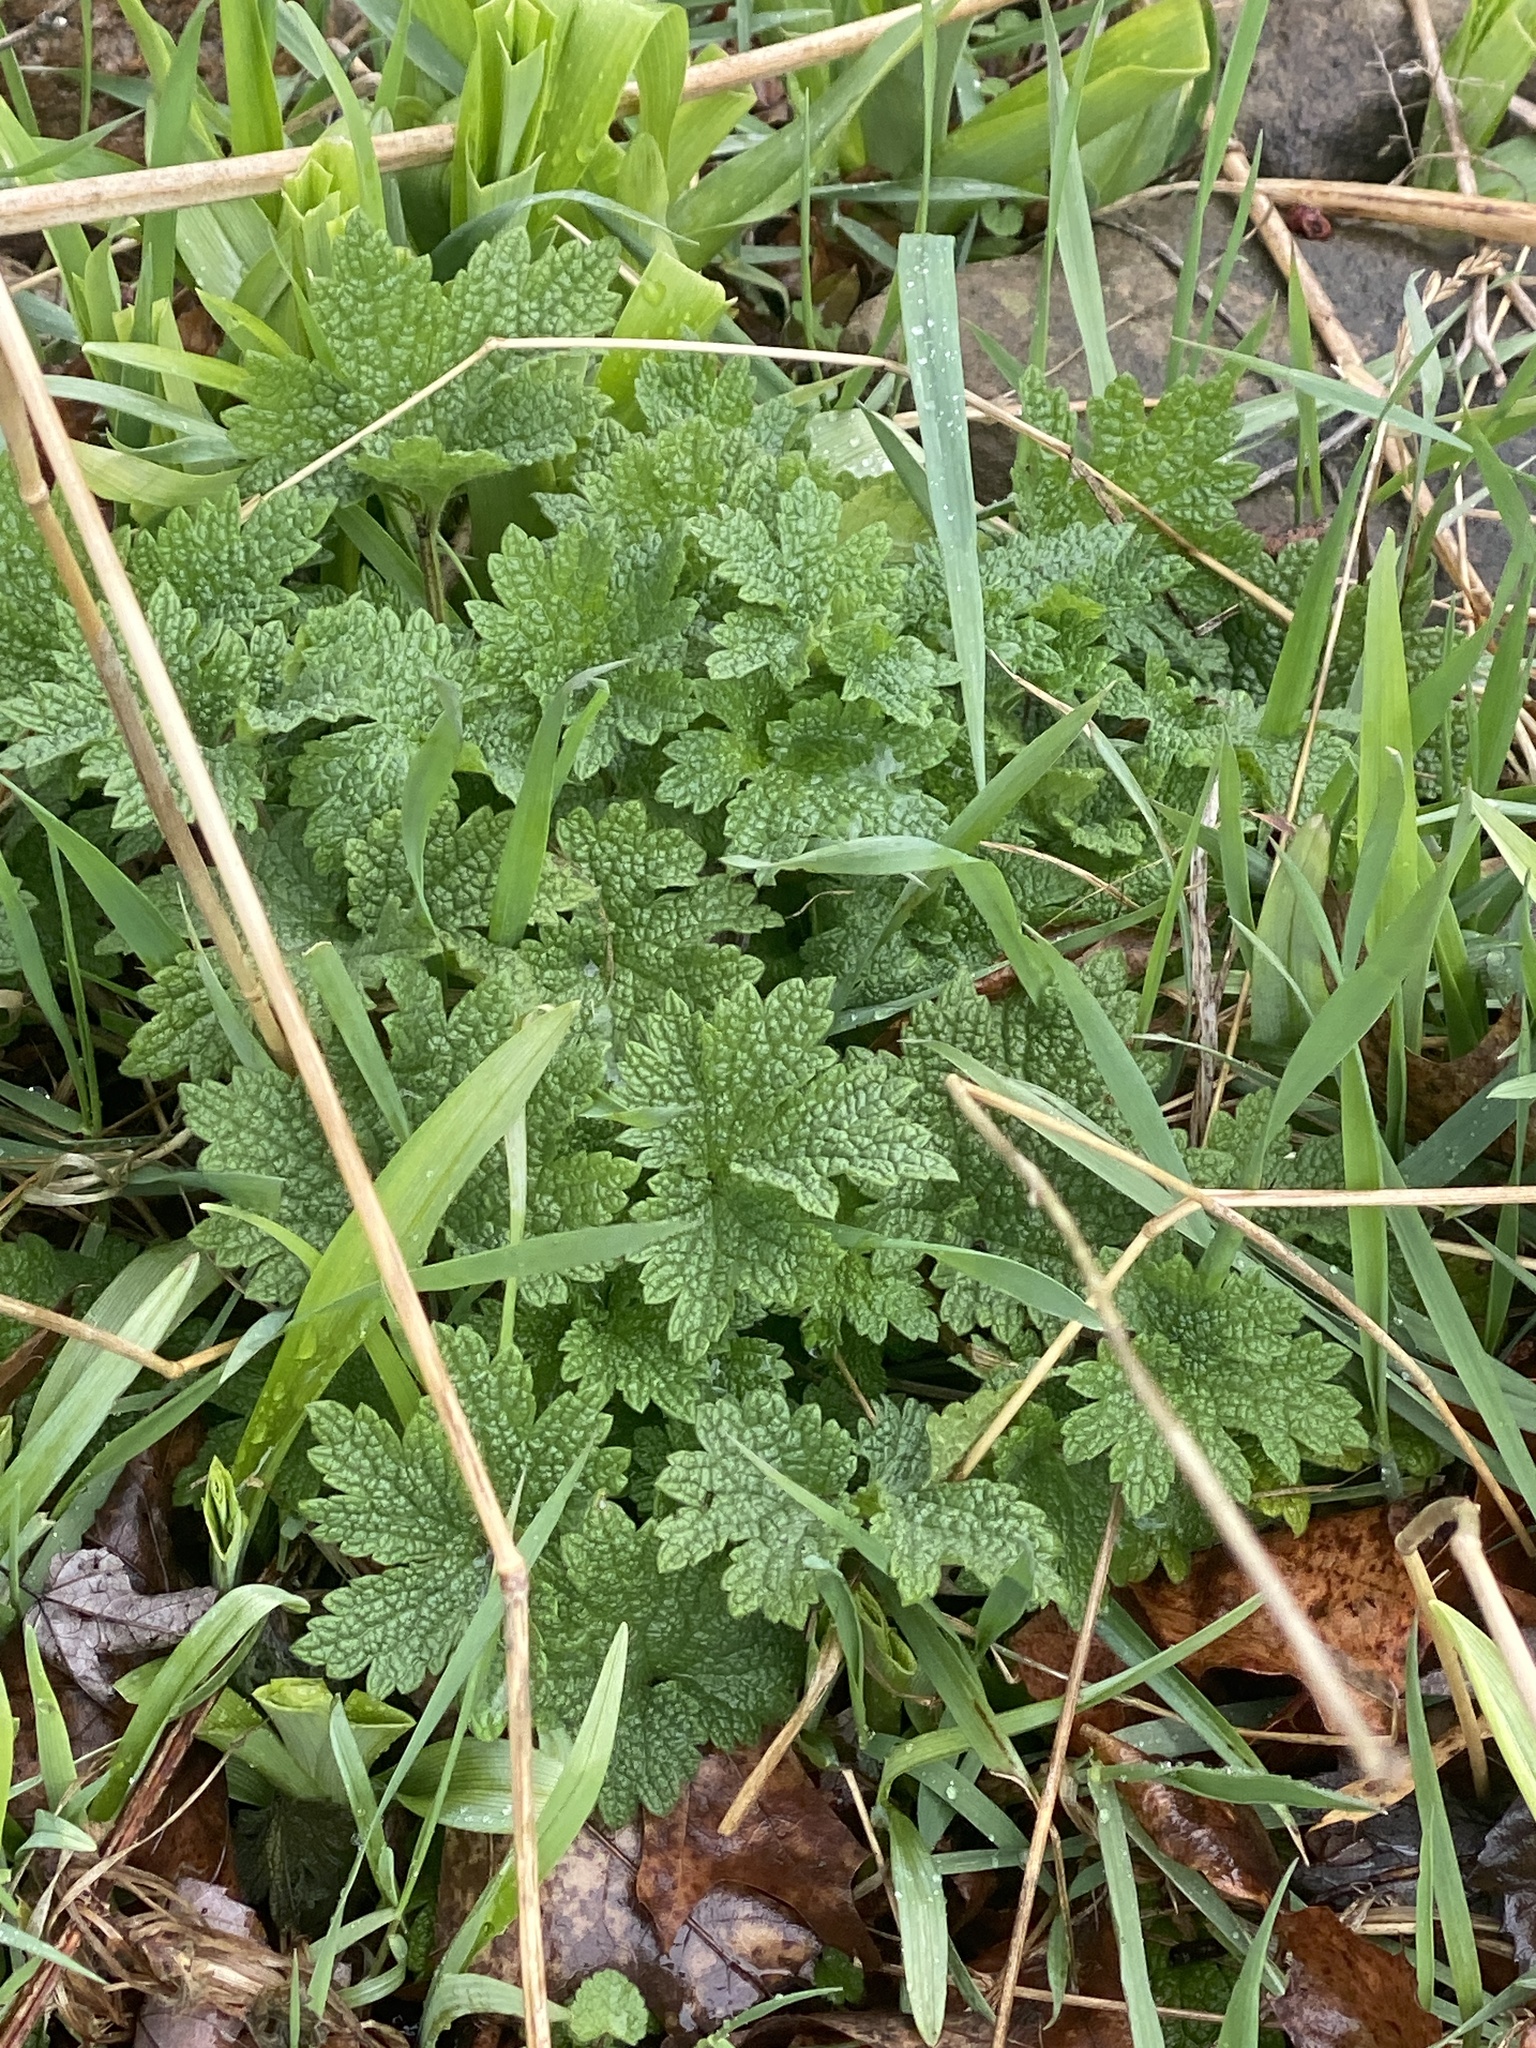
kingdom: Plantae
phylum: Tracheophyta
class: Magnoliopsida
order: Lamiales
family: Lamiaceae
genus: Leonurus
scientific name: Leonurus cardiaca
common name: Motherwort
